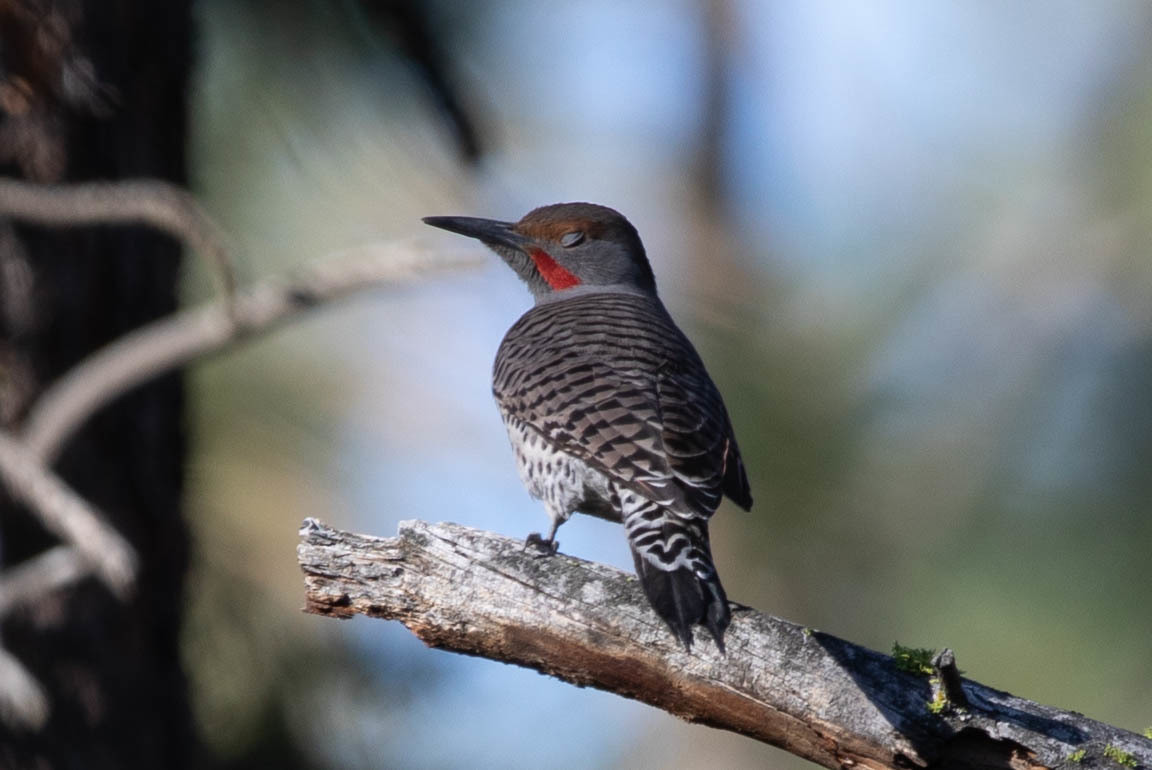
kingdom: Animalia
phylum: Chordata
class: Aves
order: Piciformes
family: Picidae
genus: Colaptes
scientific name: Colaptes auratus
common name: Northern flicker
